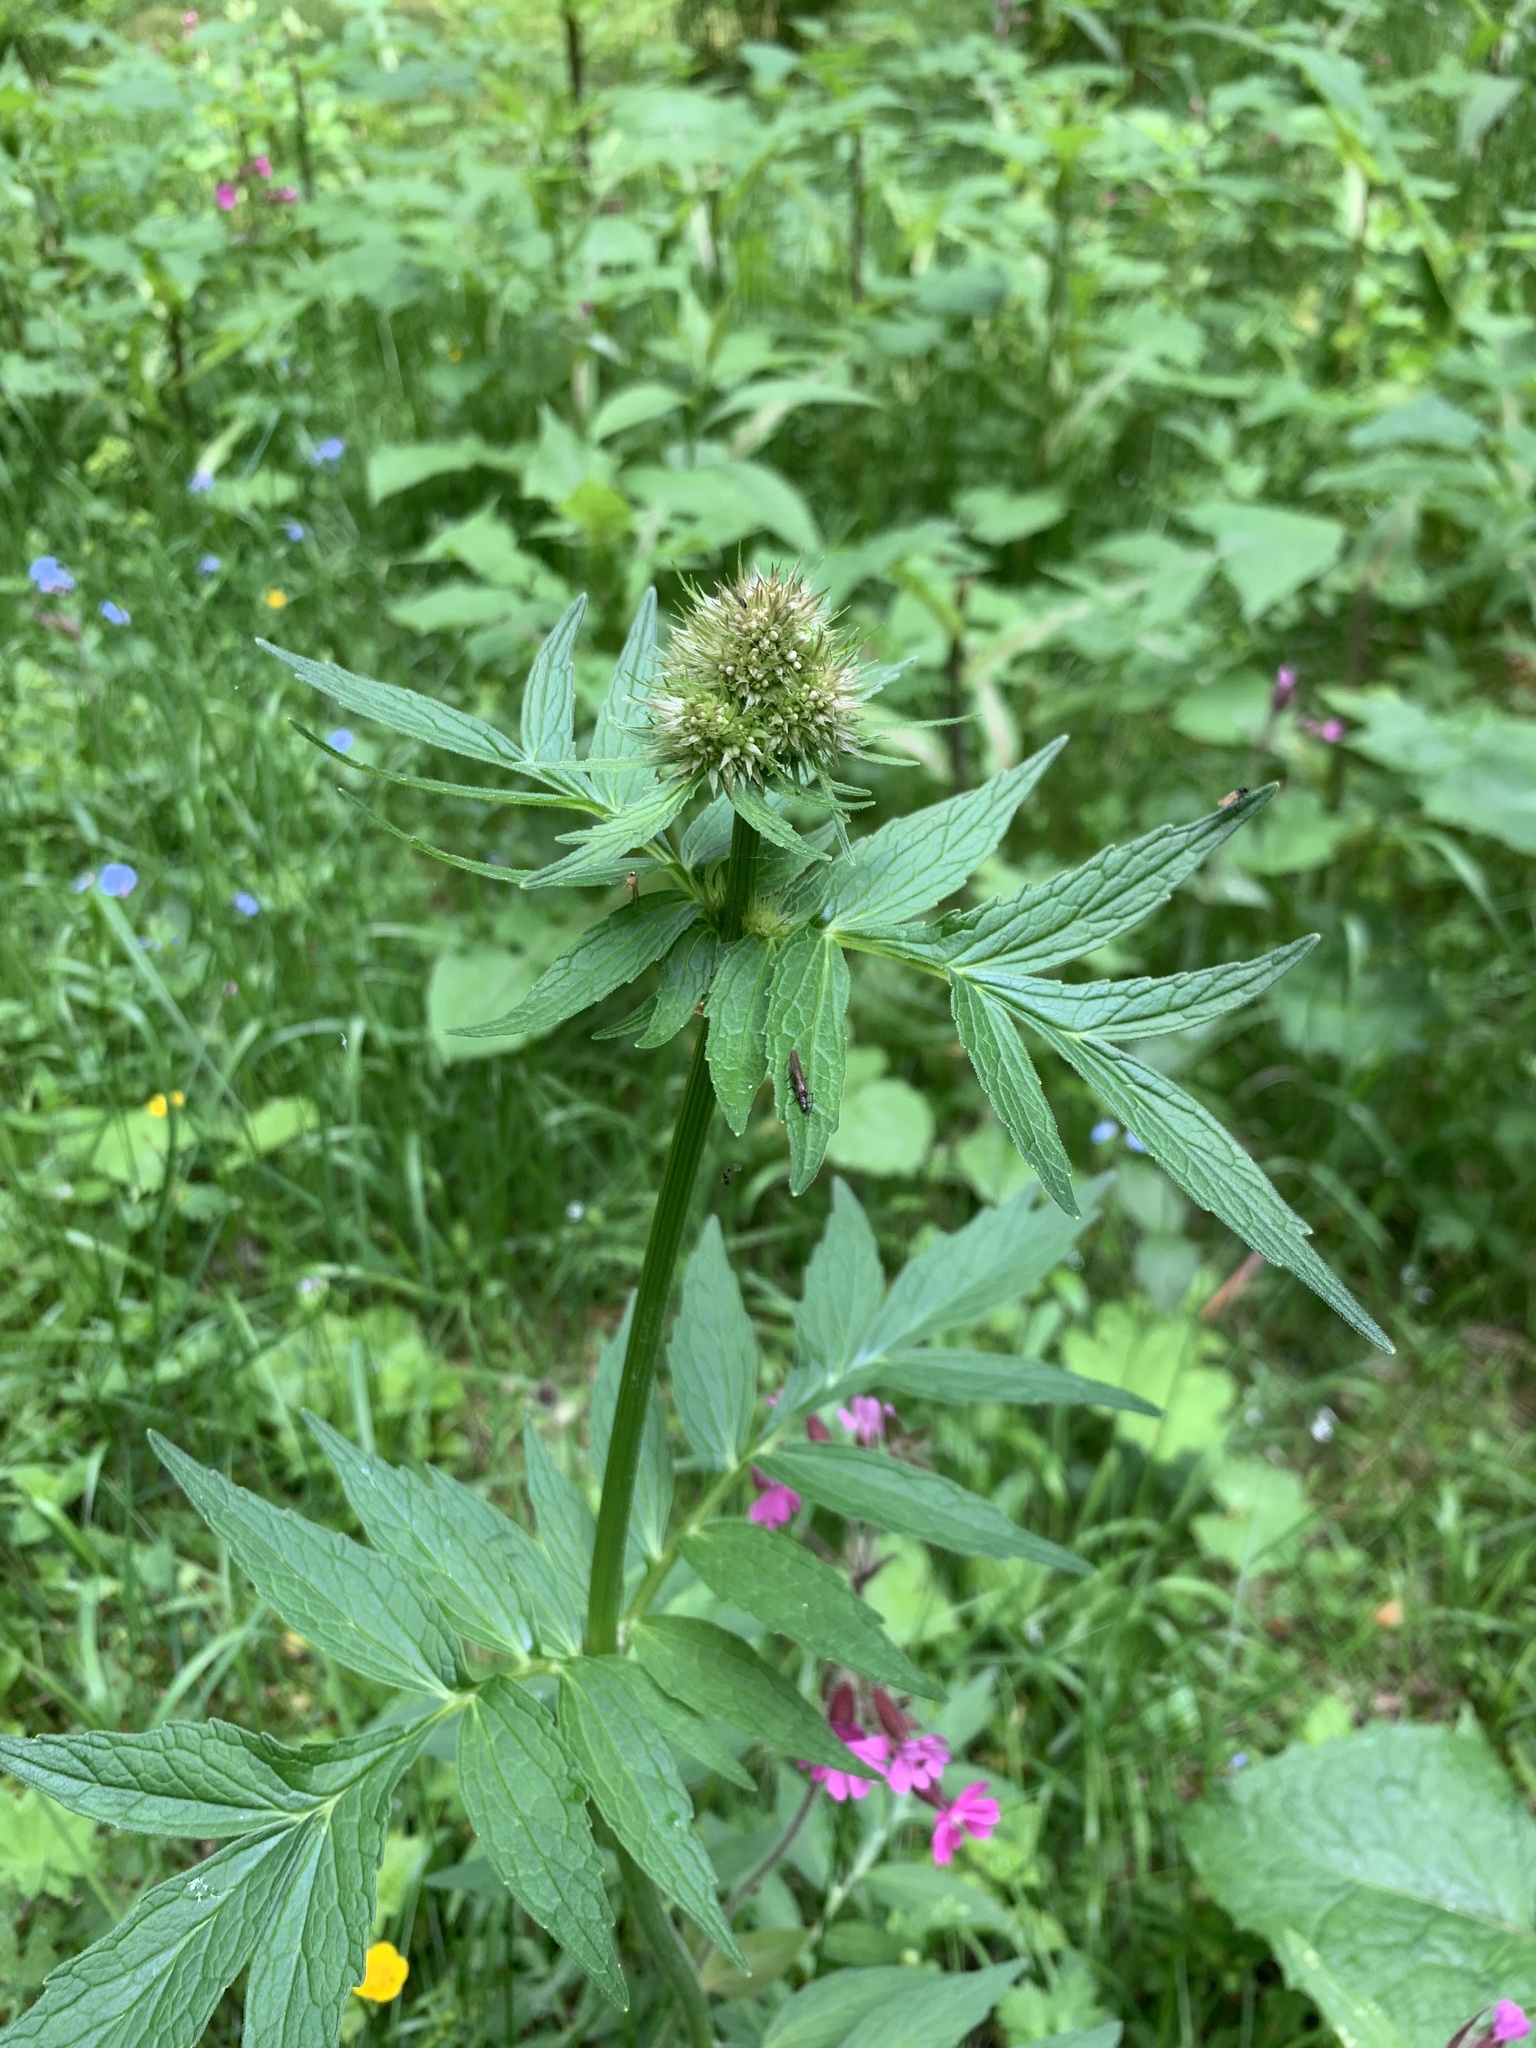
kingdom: Plantae
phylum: Tracheophyta
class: Magnoliopsida
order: Dipsacales
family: Caprifoliaceae
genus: Valeriana
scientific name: Valeriana officinalis
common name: Common valerian
